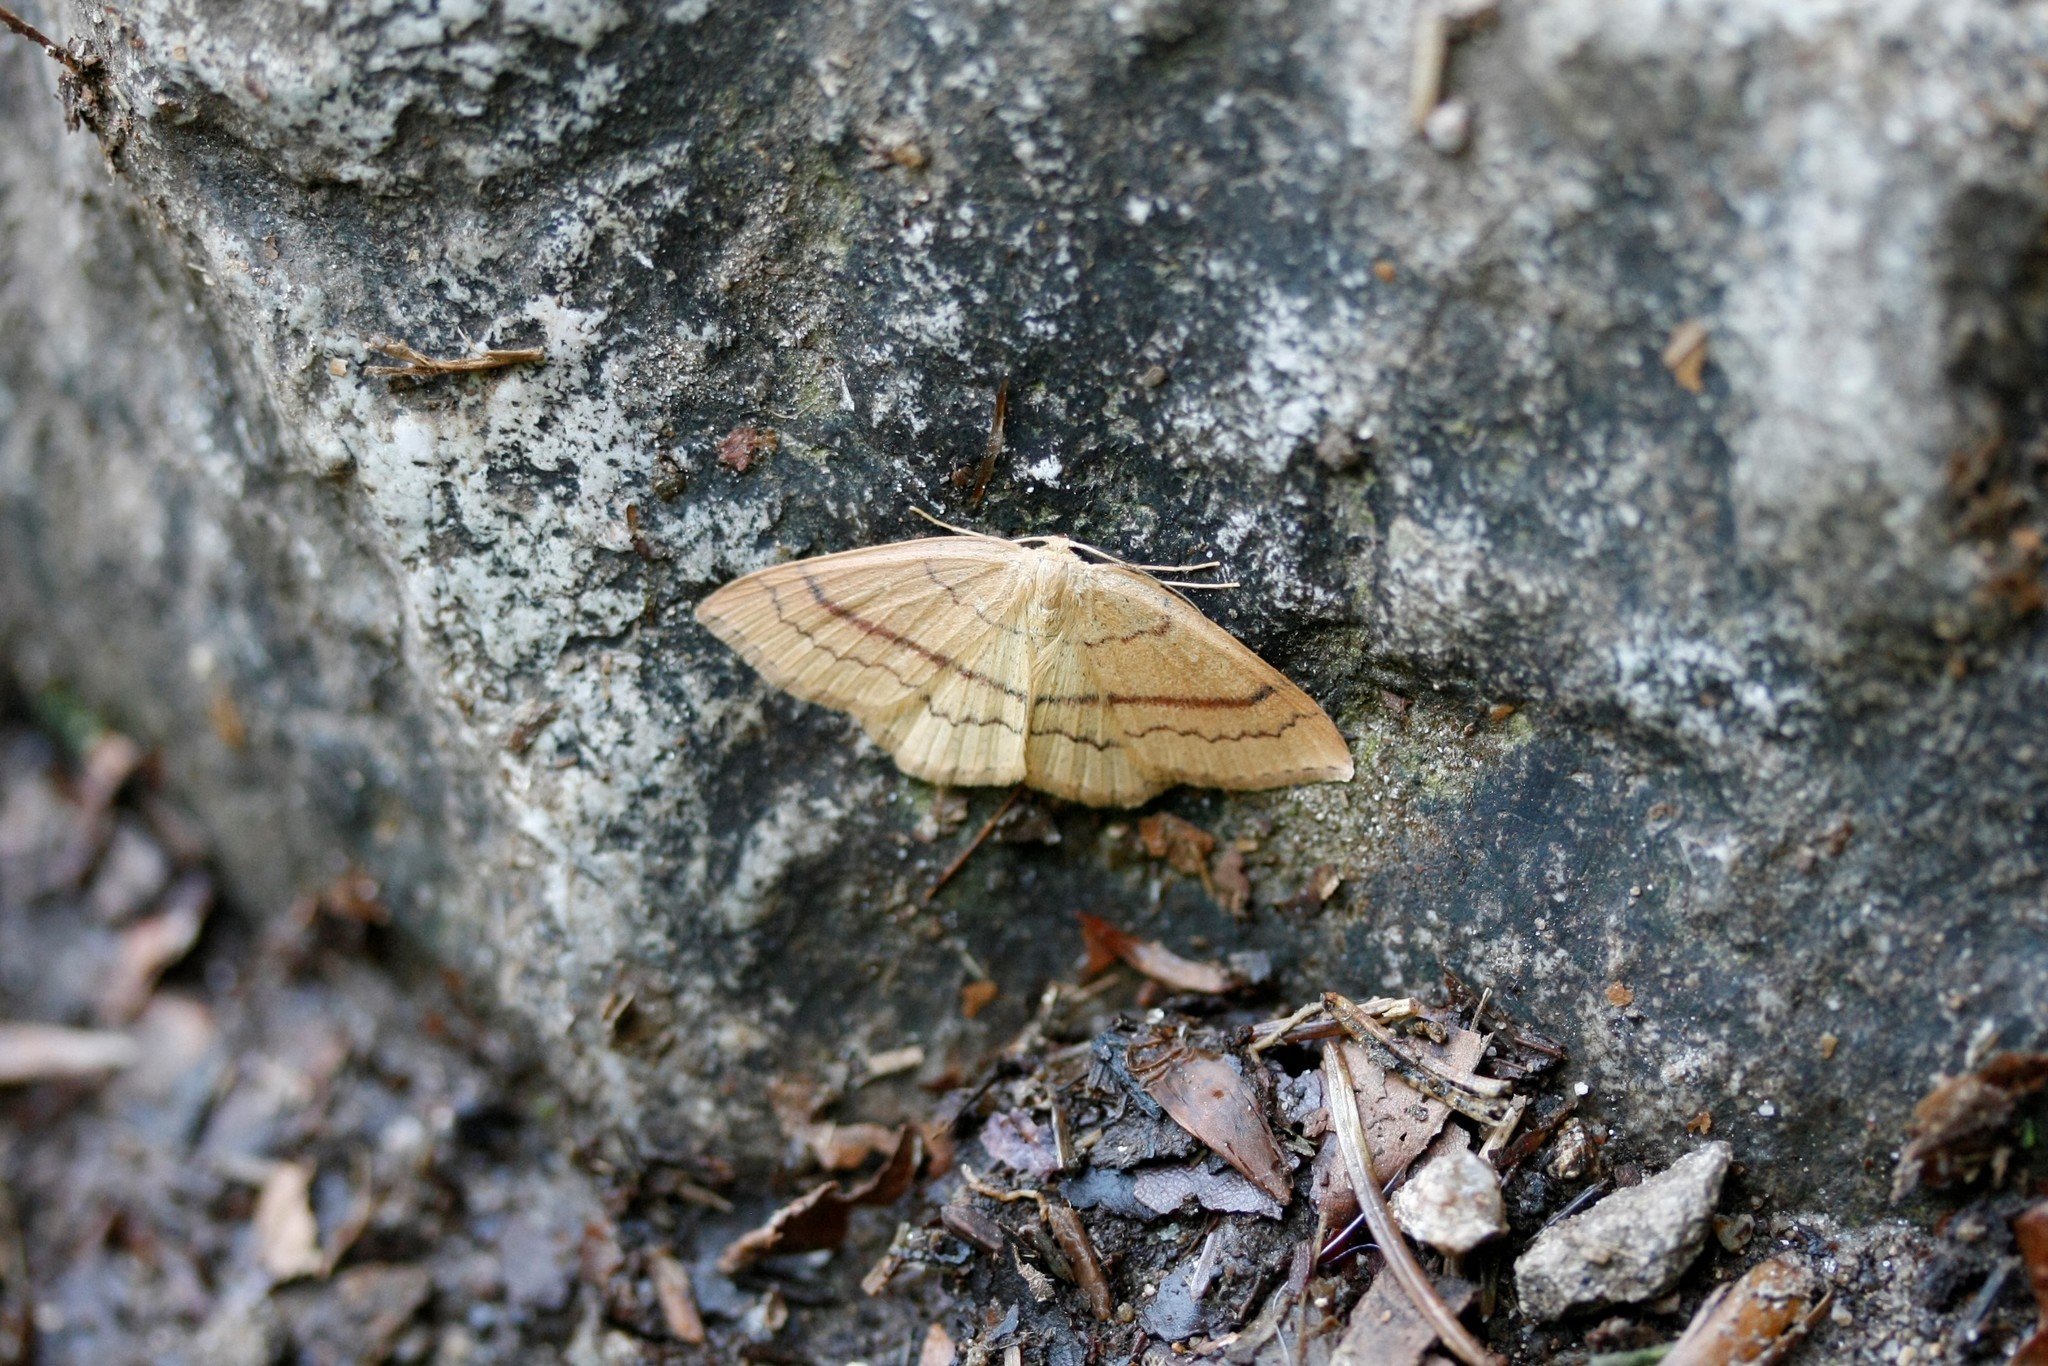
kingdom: Animalia
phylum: Arthropoda
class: Insecta
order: Lepidoptera
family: Geometridae
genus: Cyclophora
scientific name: Cyclophora linearia
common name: Clay triple-lines
